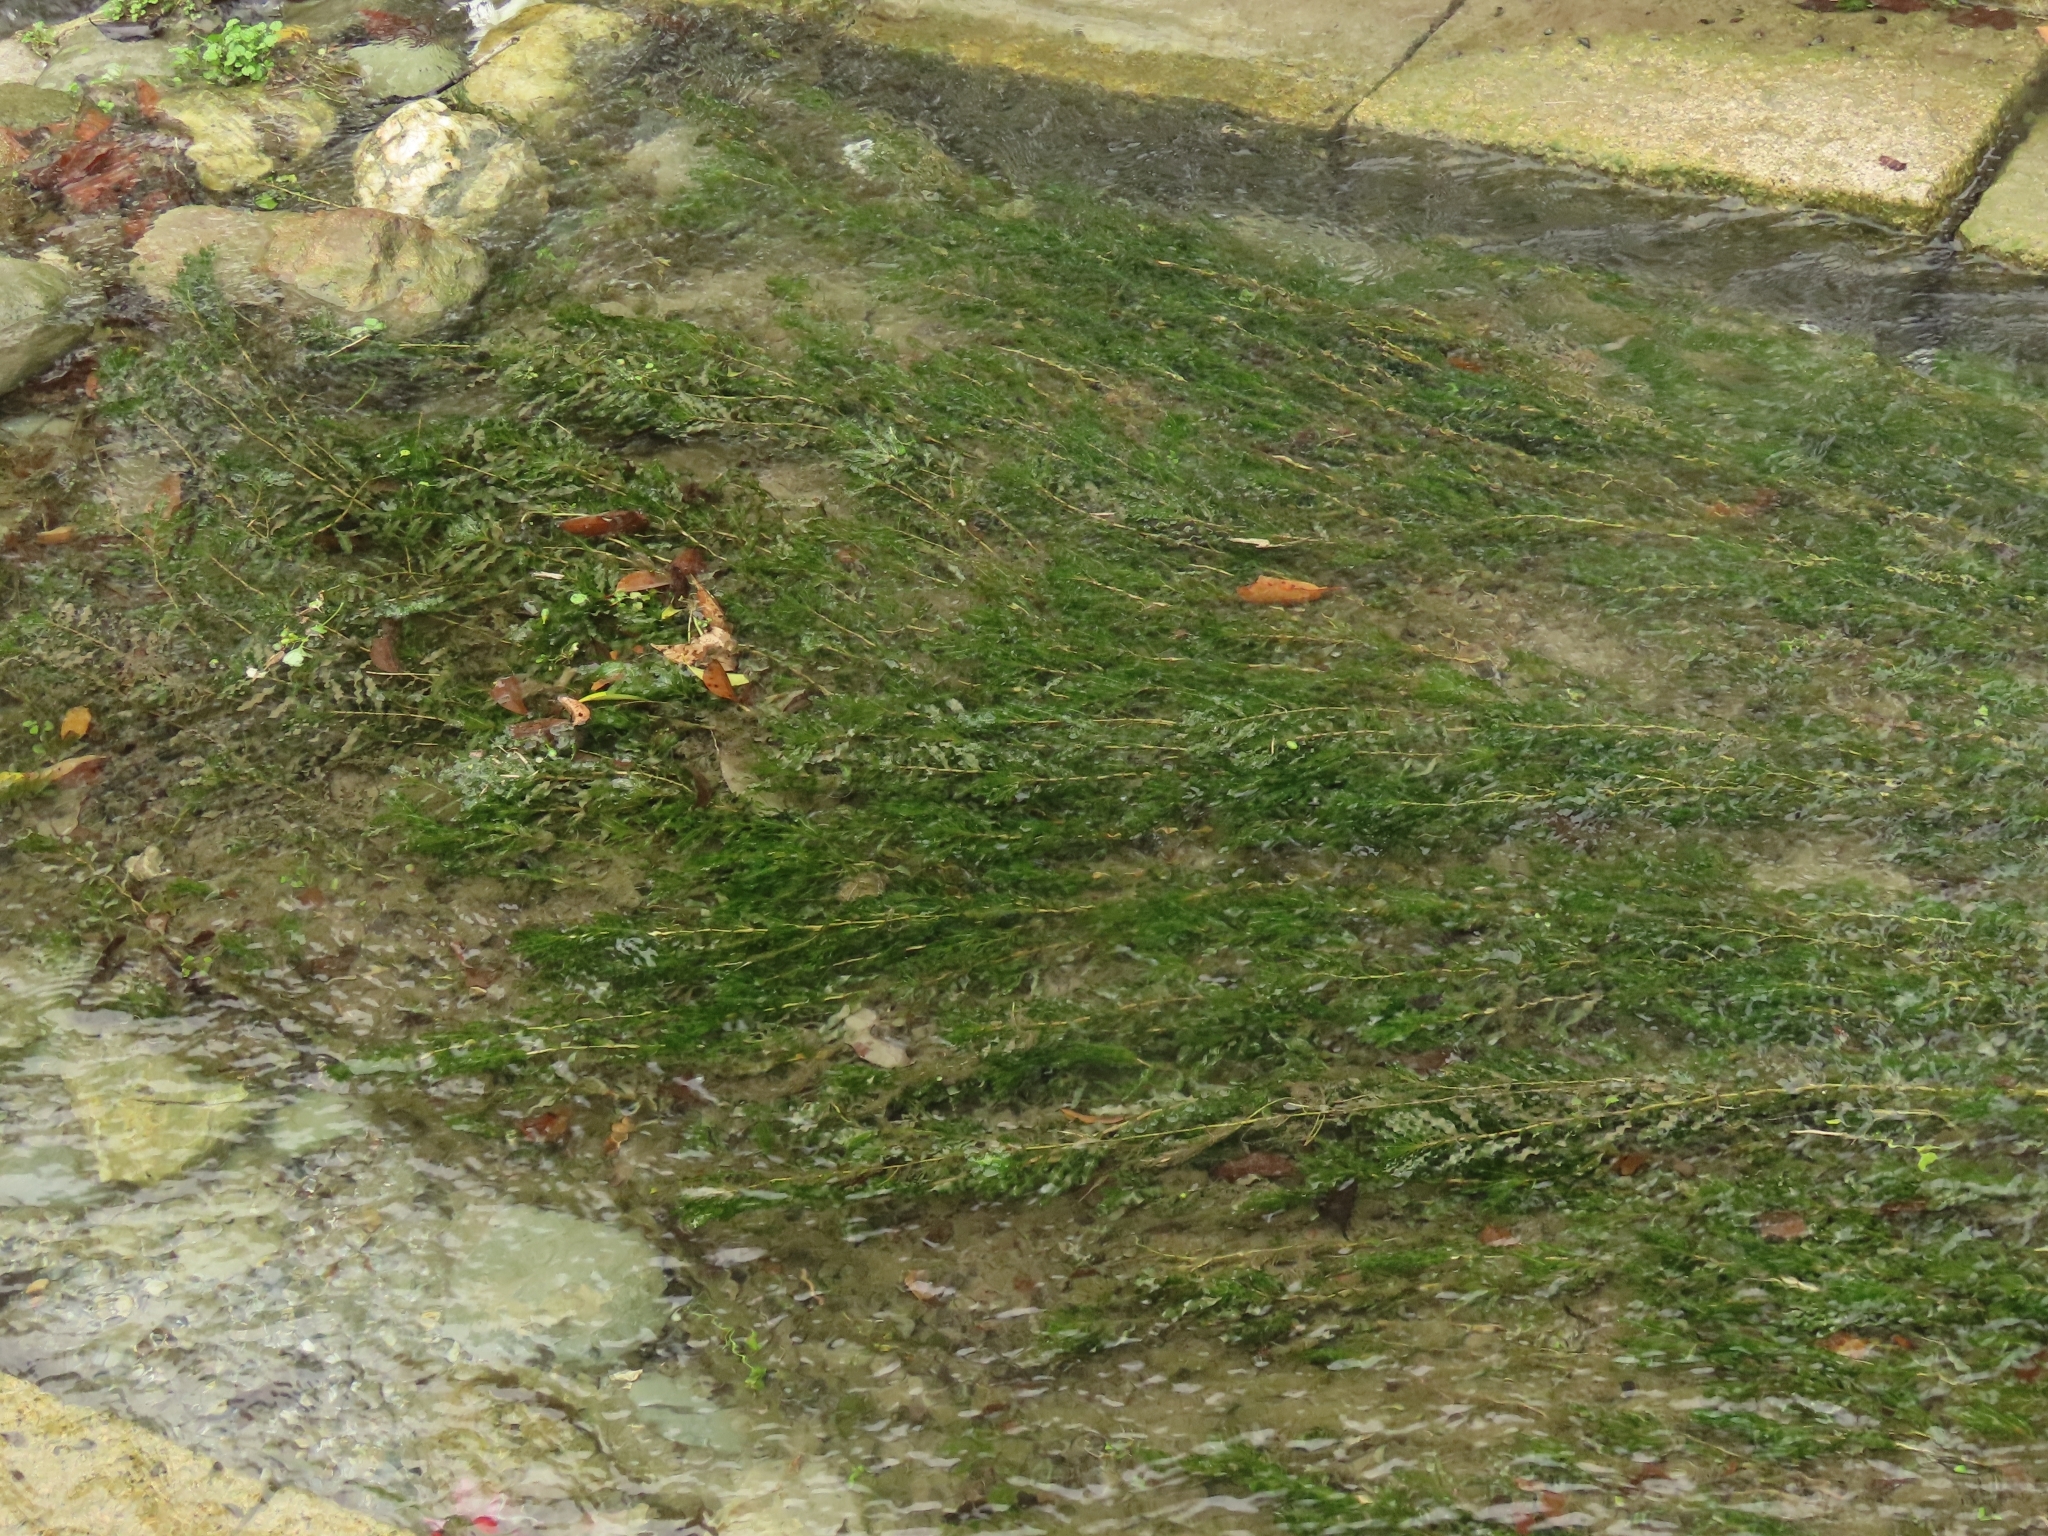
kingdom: Plantae
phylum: Tracheophyta
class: Liliopsida
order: Alismatales
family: Potamogetonaceae
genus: Potamogeton
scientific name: Potamogeton crispus
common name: Curled pondweed
